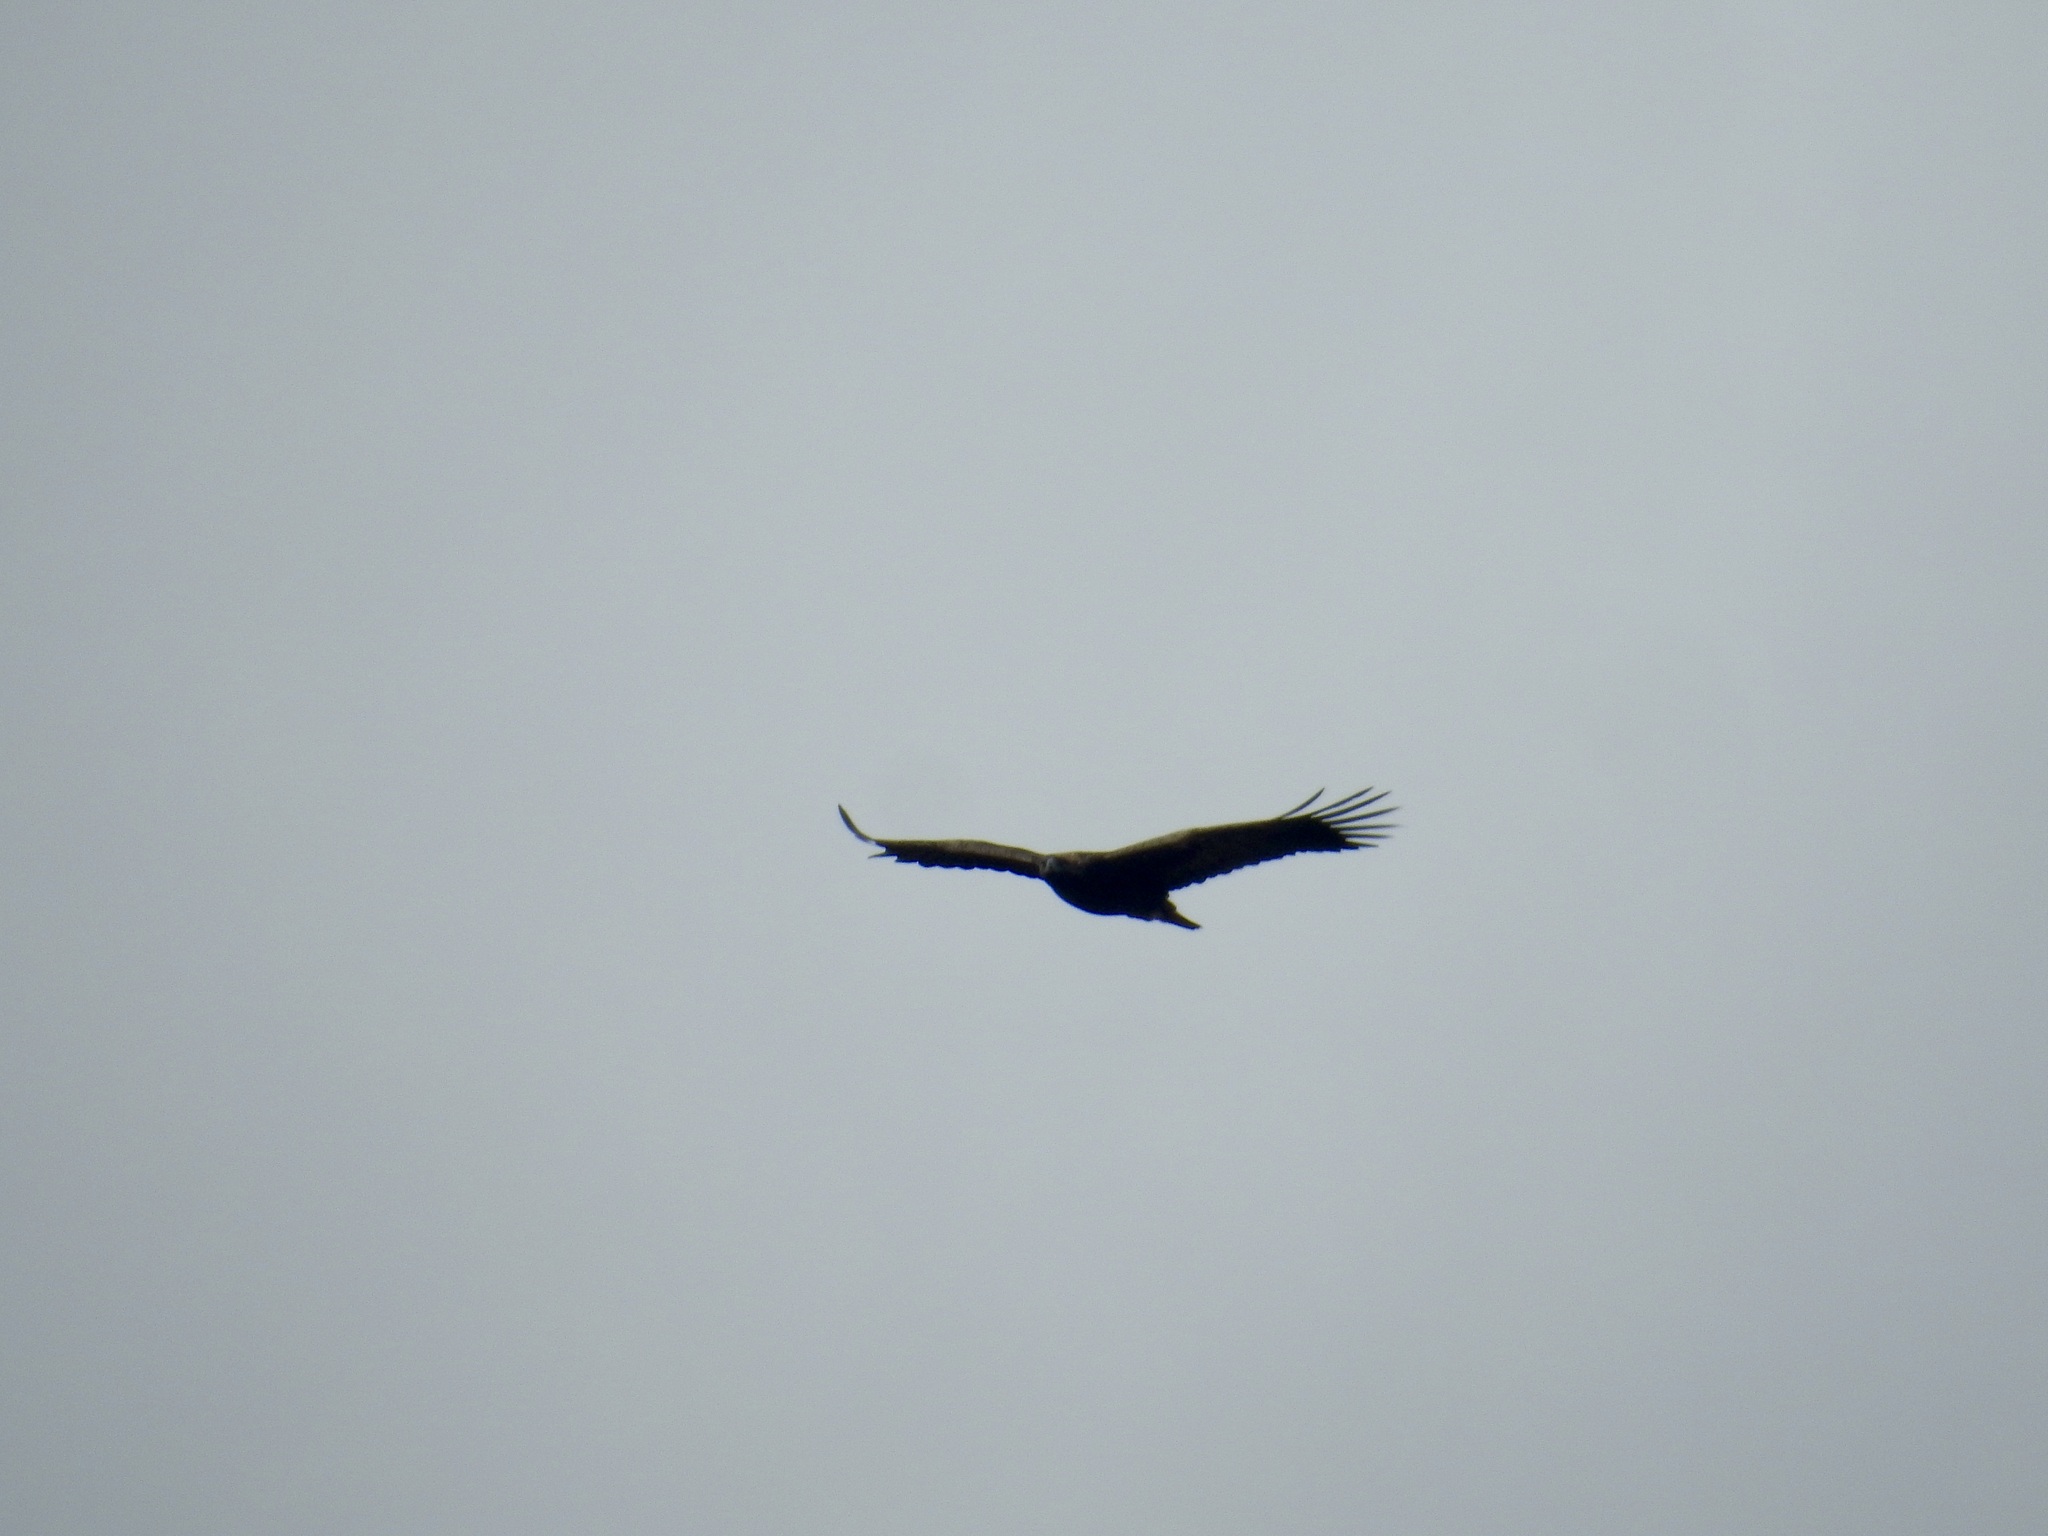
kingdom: Animalia
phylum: Chordata
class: Aves
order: Accipitriformes
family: Accipitridae
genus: Aquila
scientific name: Aquila chrysaetos
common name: Golden eagle
